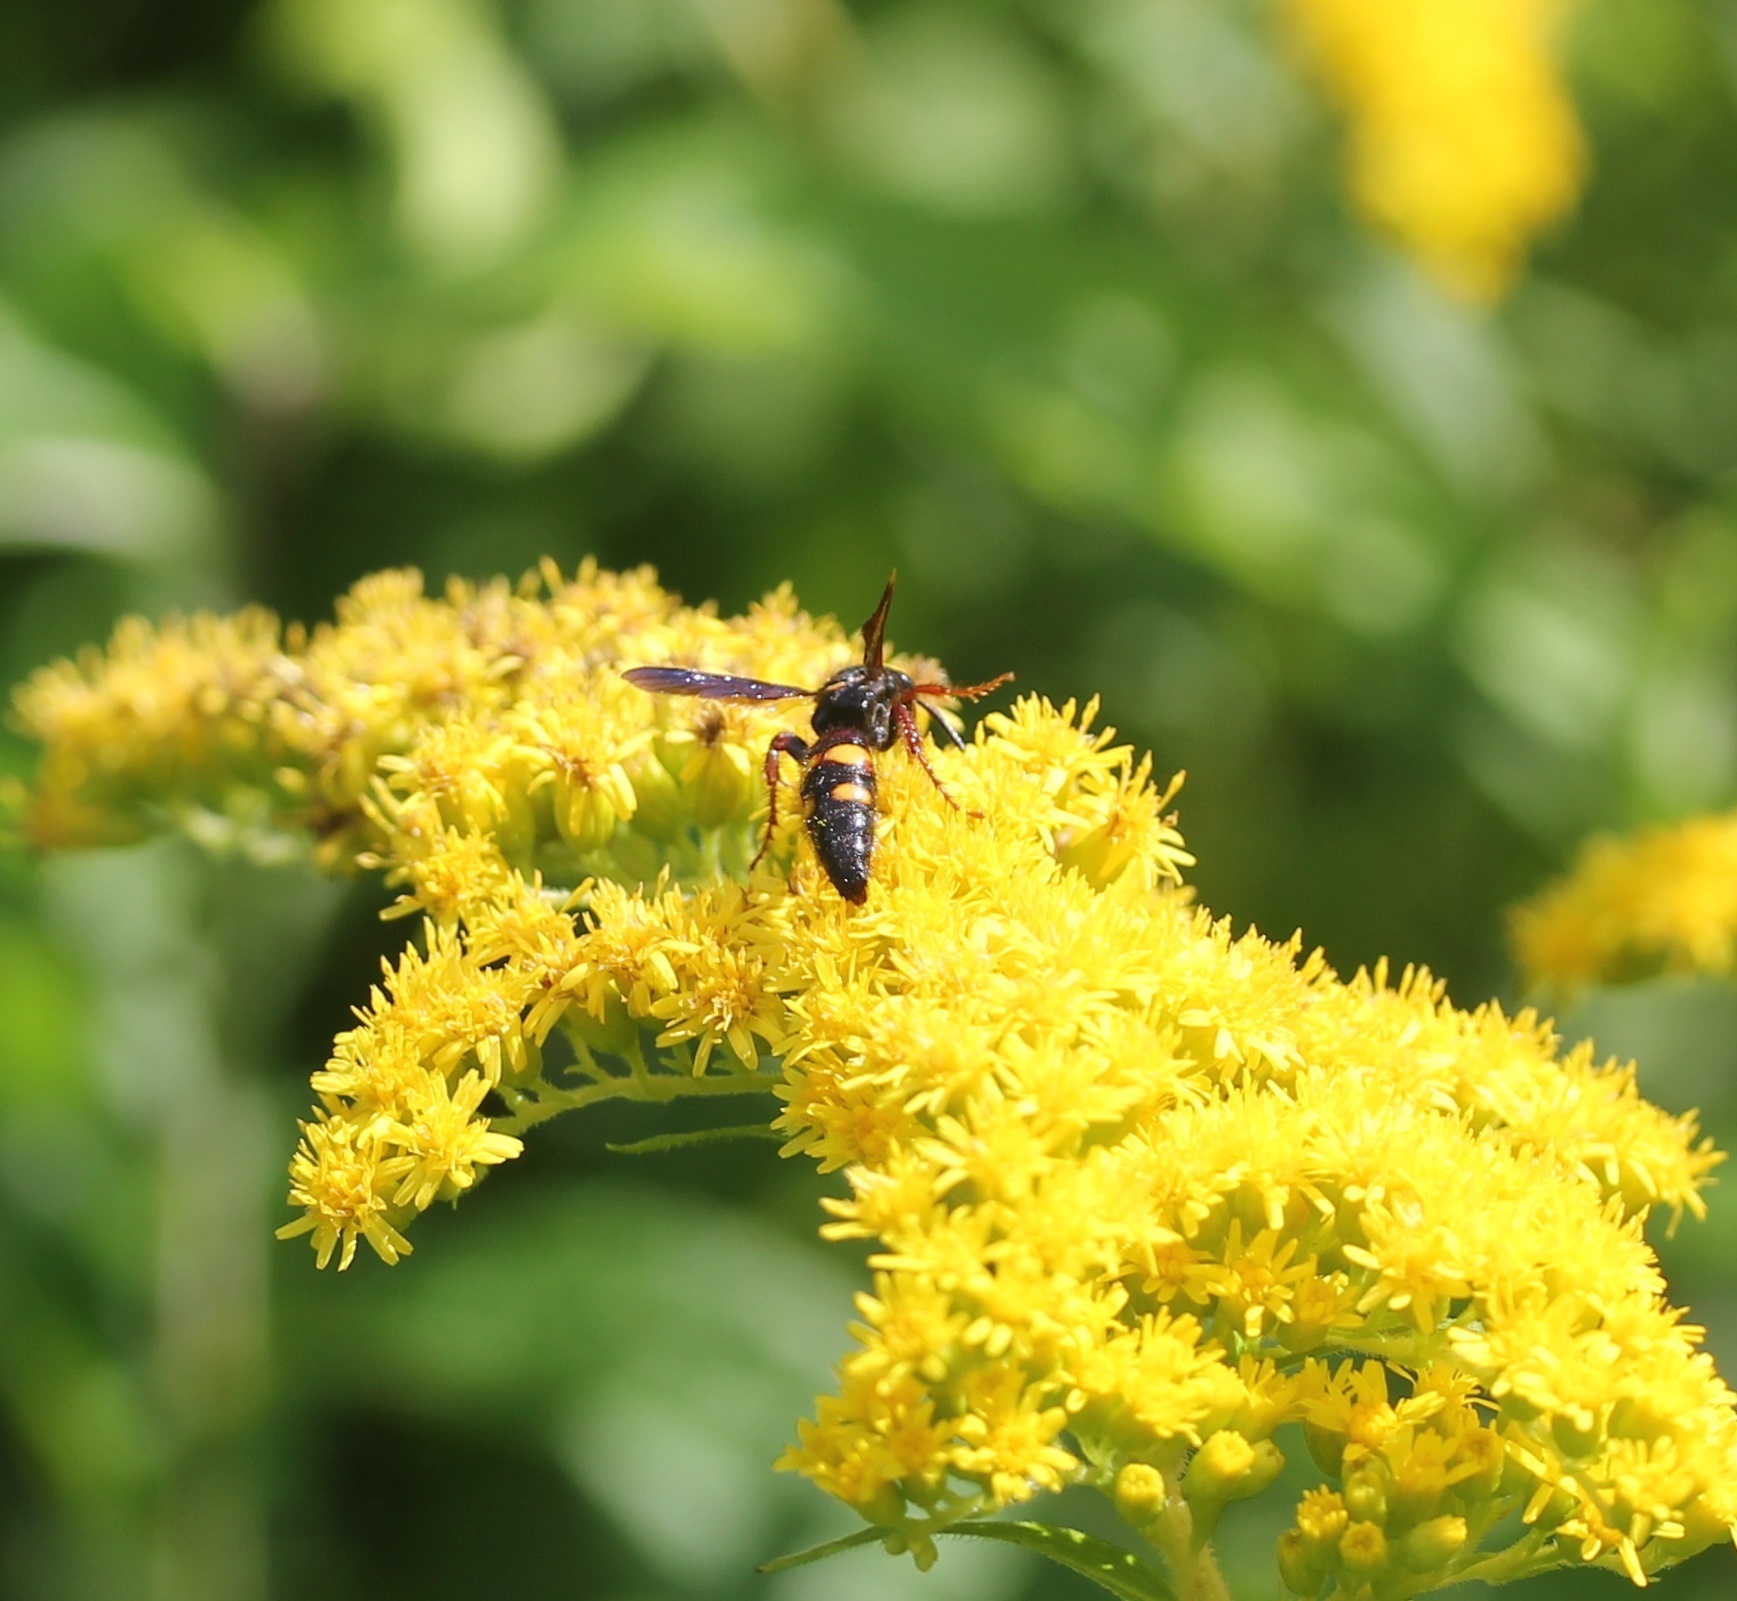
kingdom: Animalia
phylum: Arthropoda
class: Insecta
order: Hymenoptera
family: Scoliidae
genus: Scolia
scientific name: Scolia nobilitata
